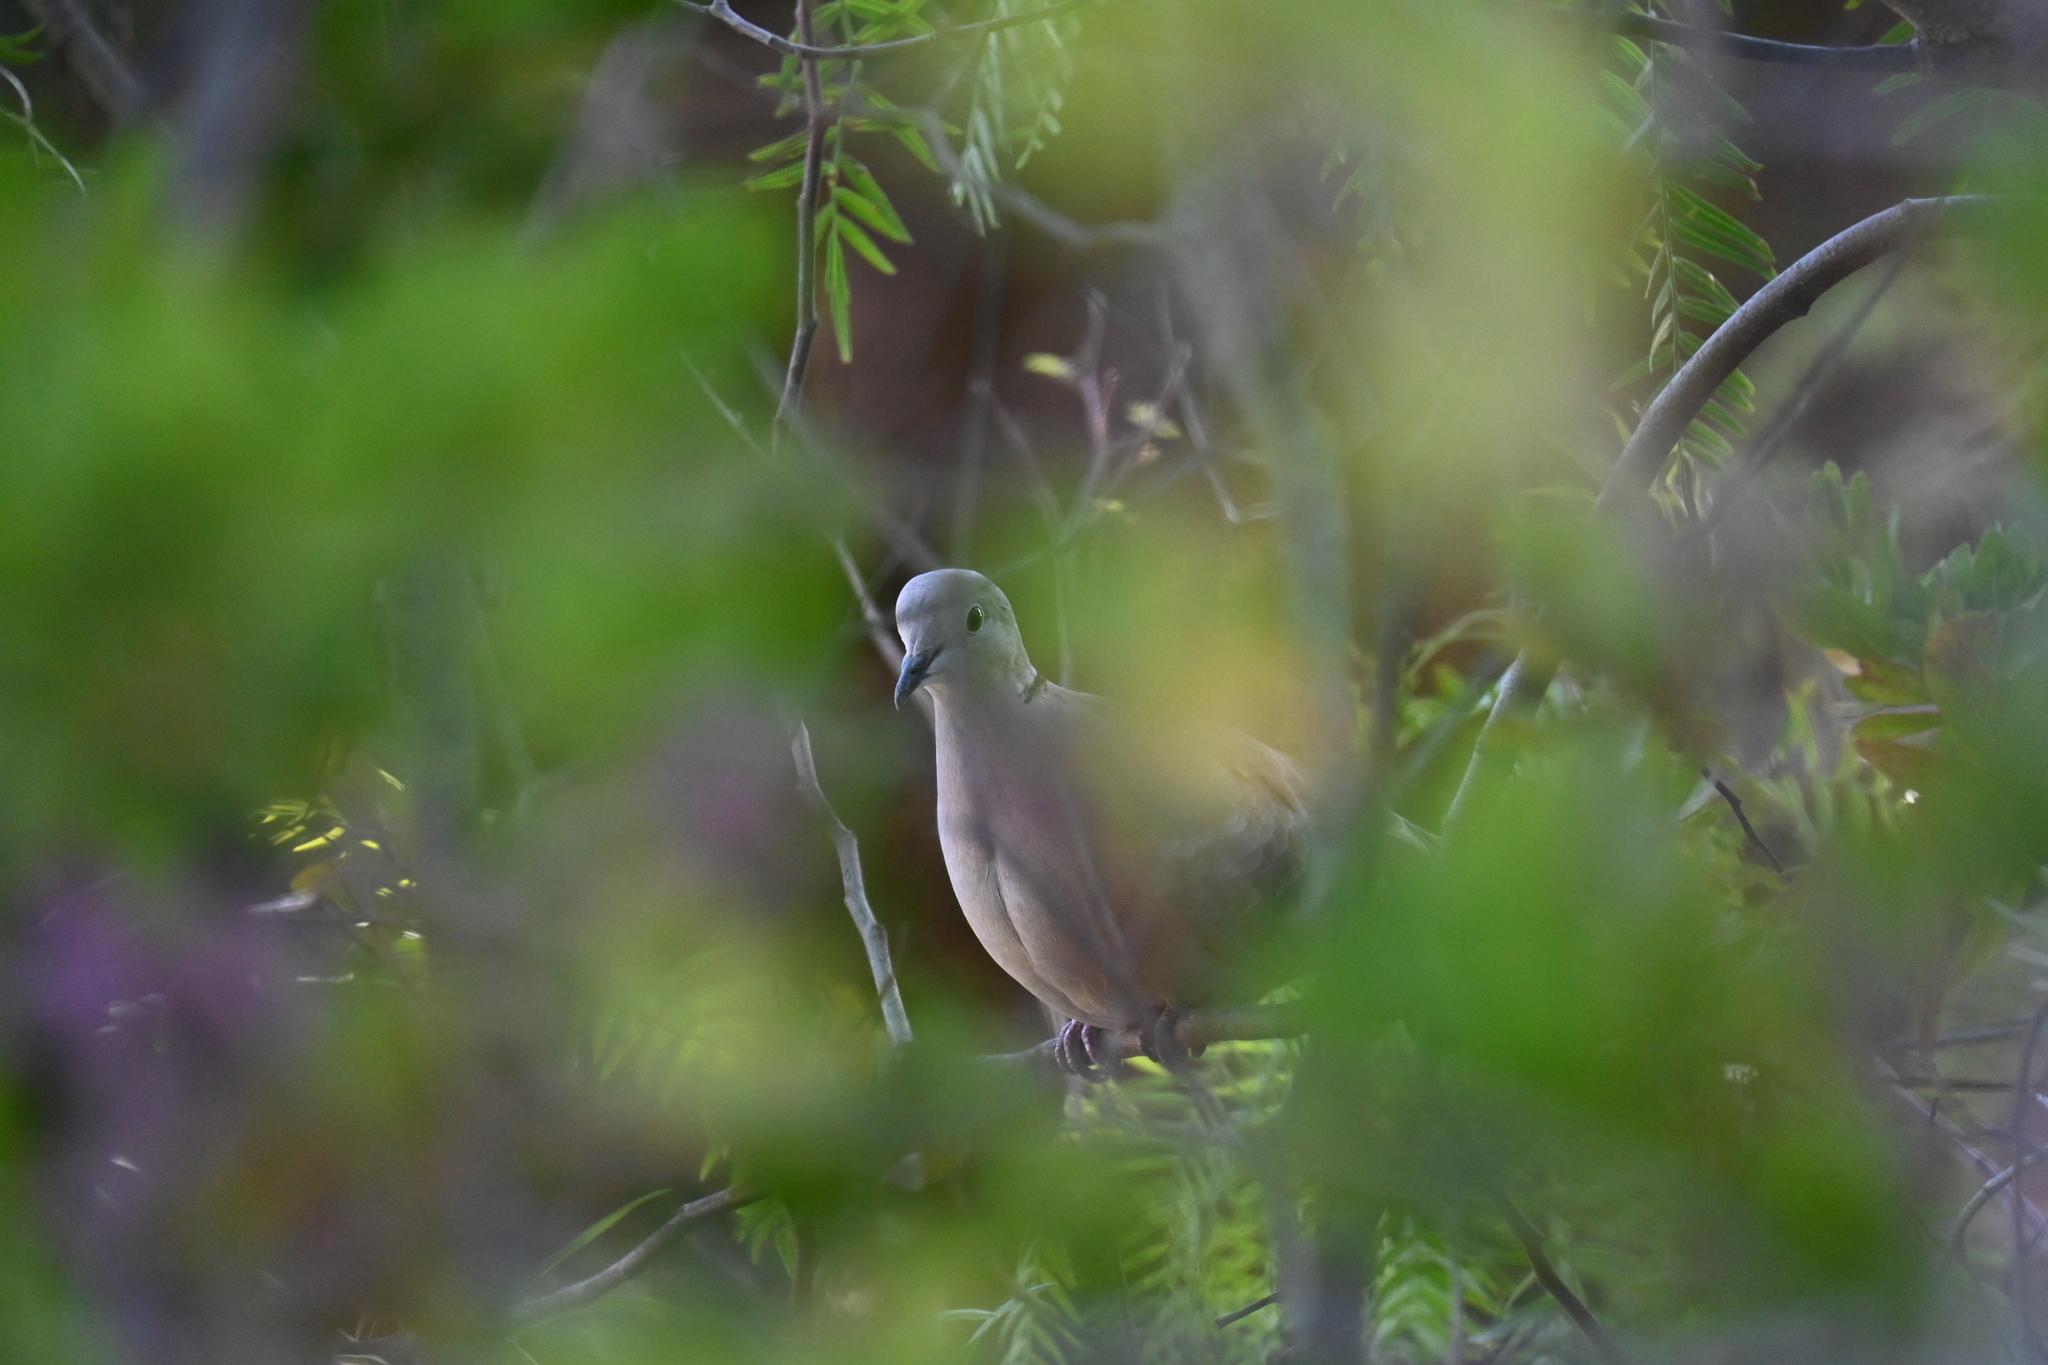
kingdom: Animalia
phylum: Chordata
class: Aves
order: Columbiformes
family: Columbidae
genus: Streptopelia
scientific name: Streptopelia decaocto
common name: Eurasian collared dove
